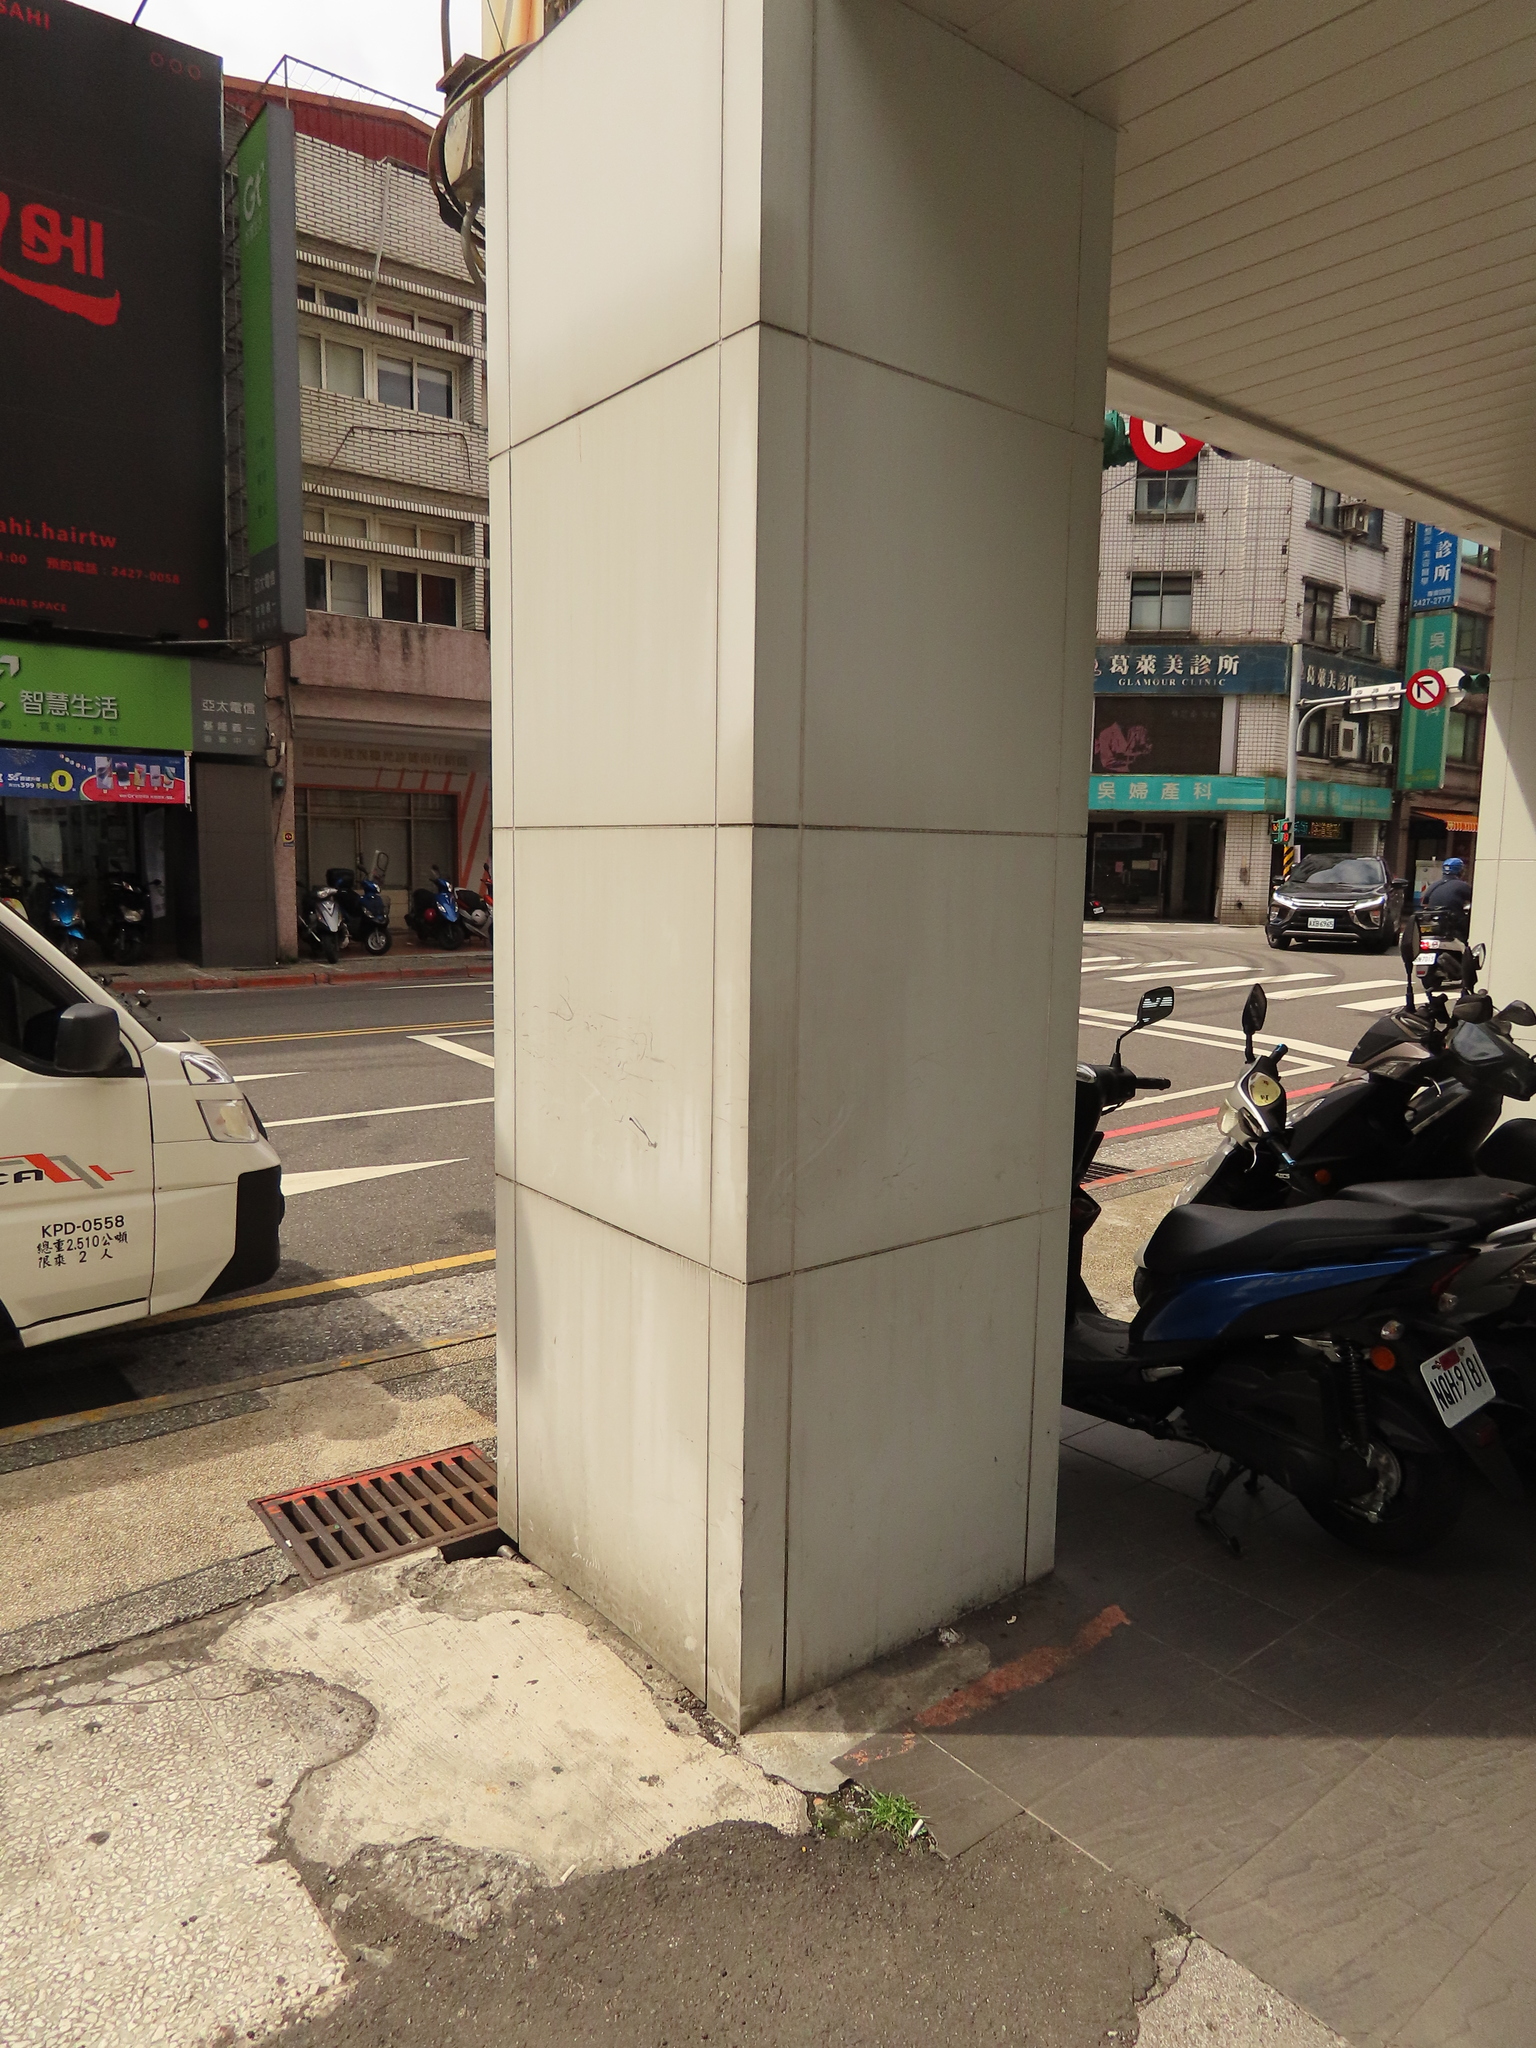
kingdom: Plantae
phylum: Tracheophyta
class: Liliopsida
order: Poales
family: Cyperaceae
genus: Cyperus
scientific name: Cyperus brevifolius
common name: Globe kyllinga
